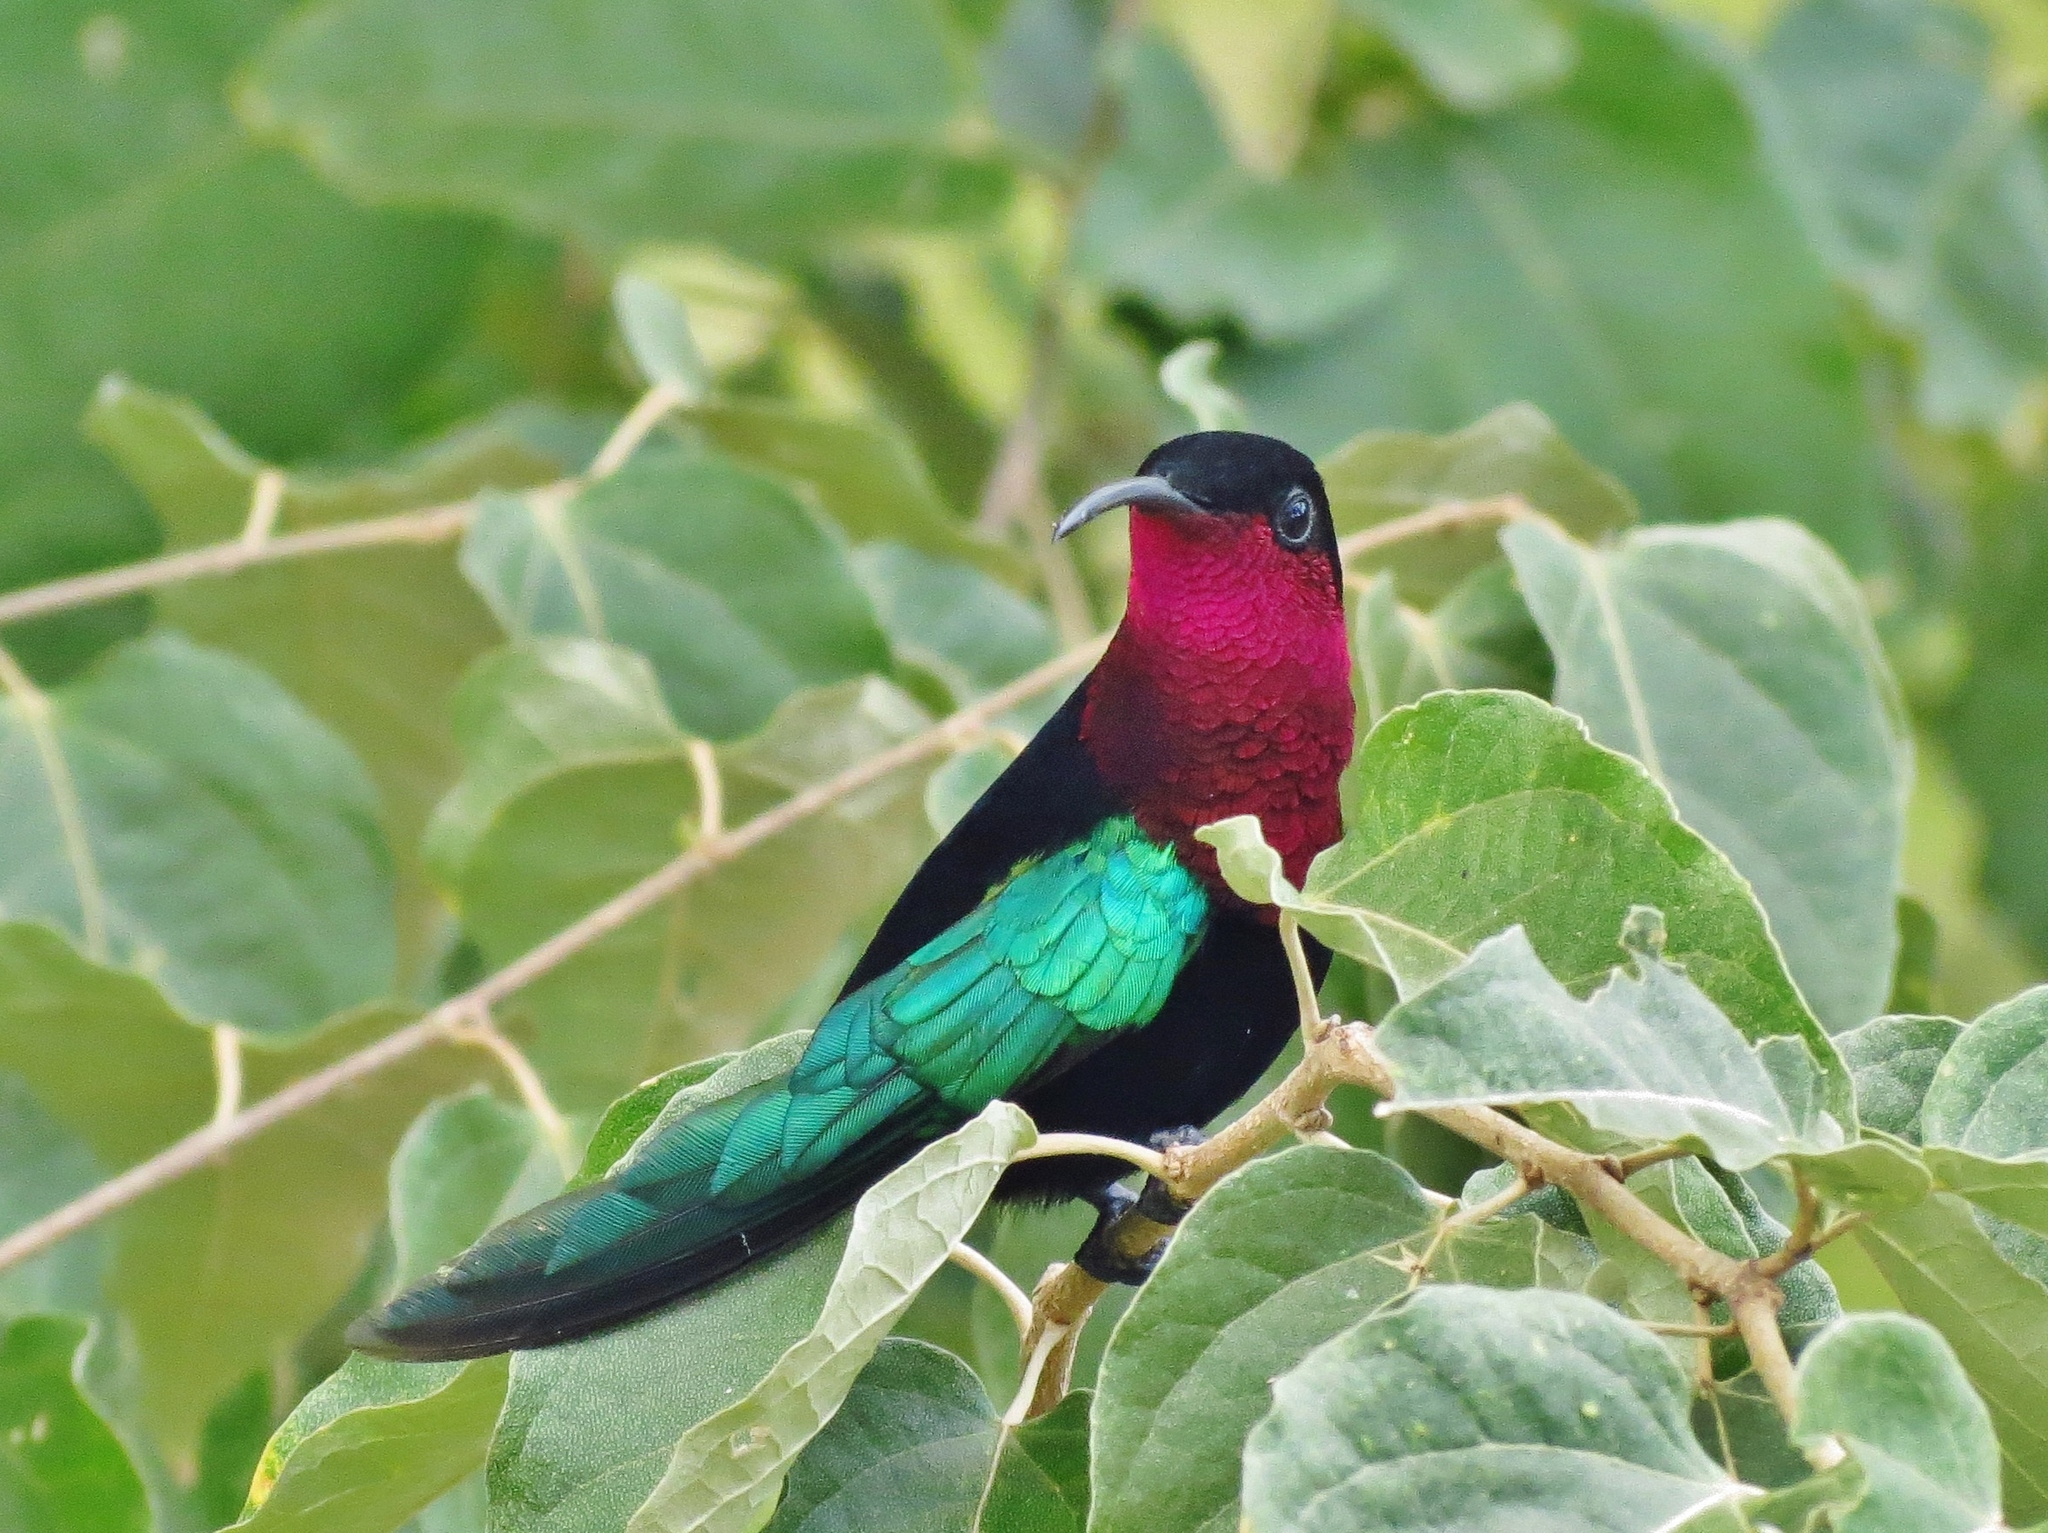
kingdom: Animalia
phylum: Chordata
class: Aves
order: Apodiformes
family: Trochilidae
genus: Eulampis
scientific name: Eulampis jugularis
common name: Purple-throated carib
